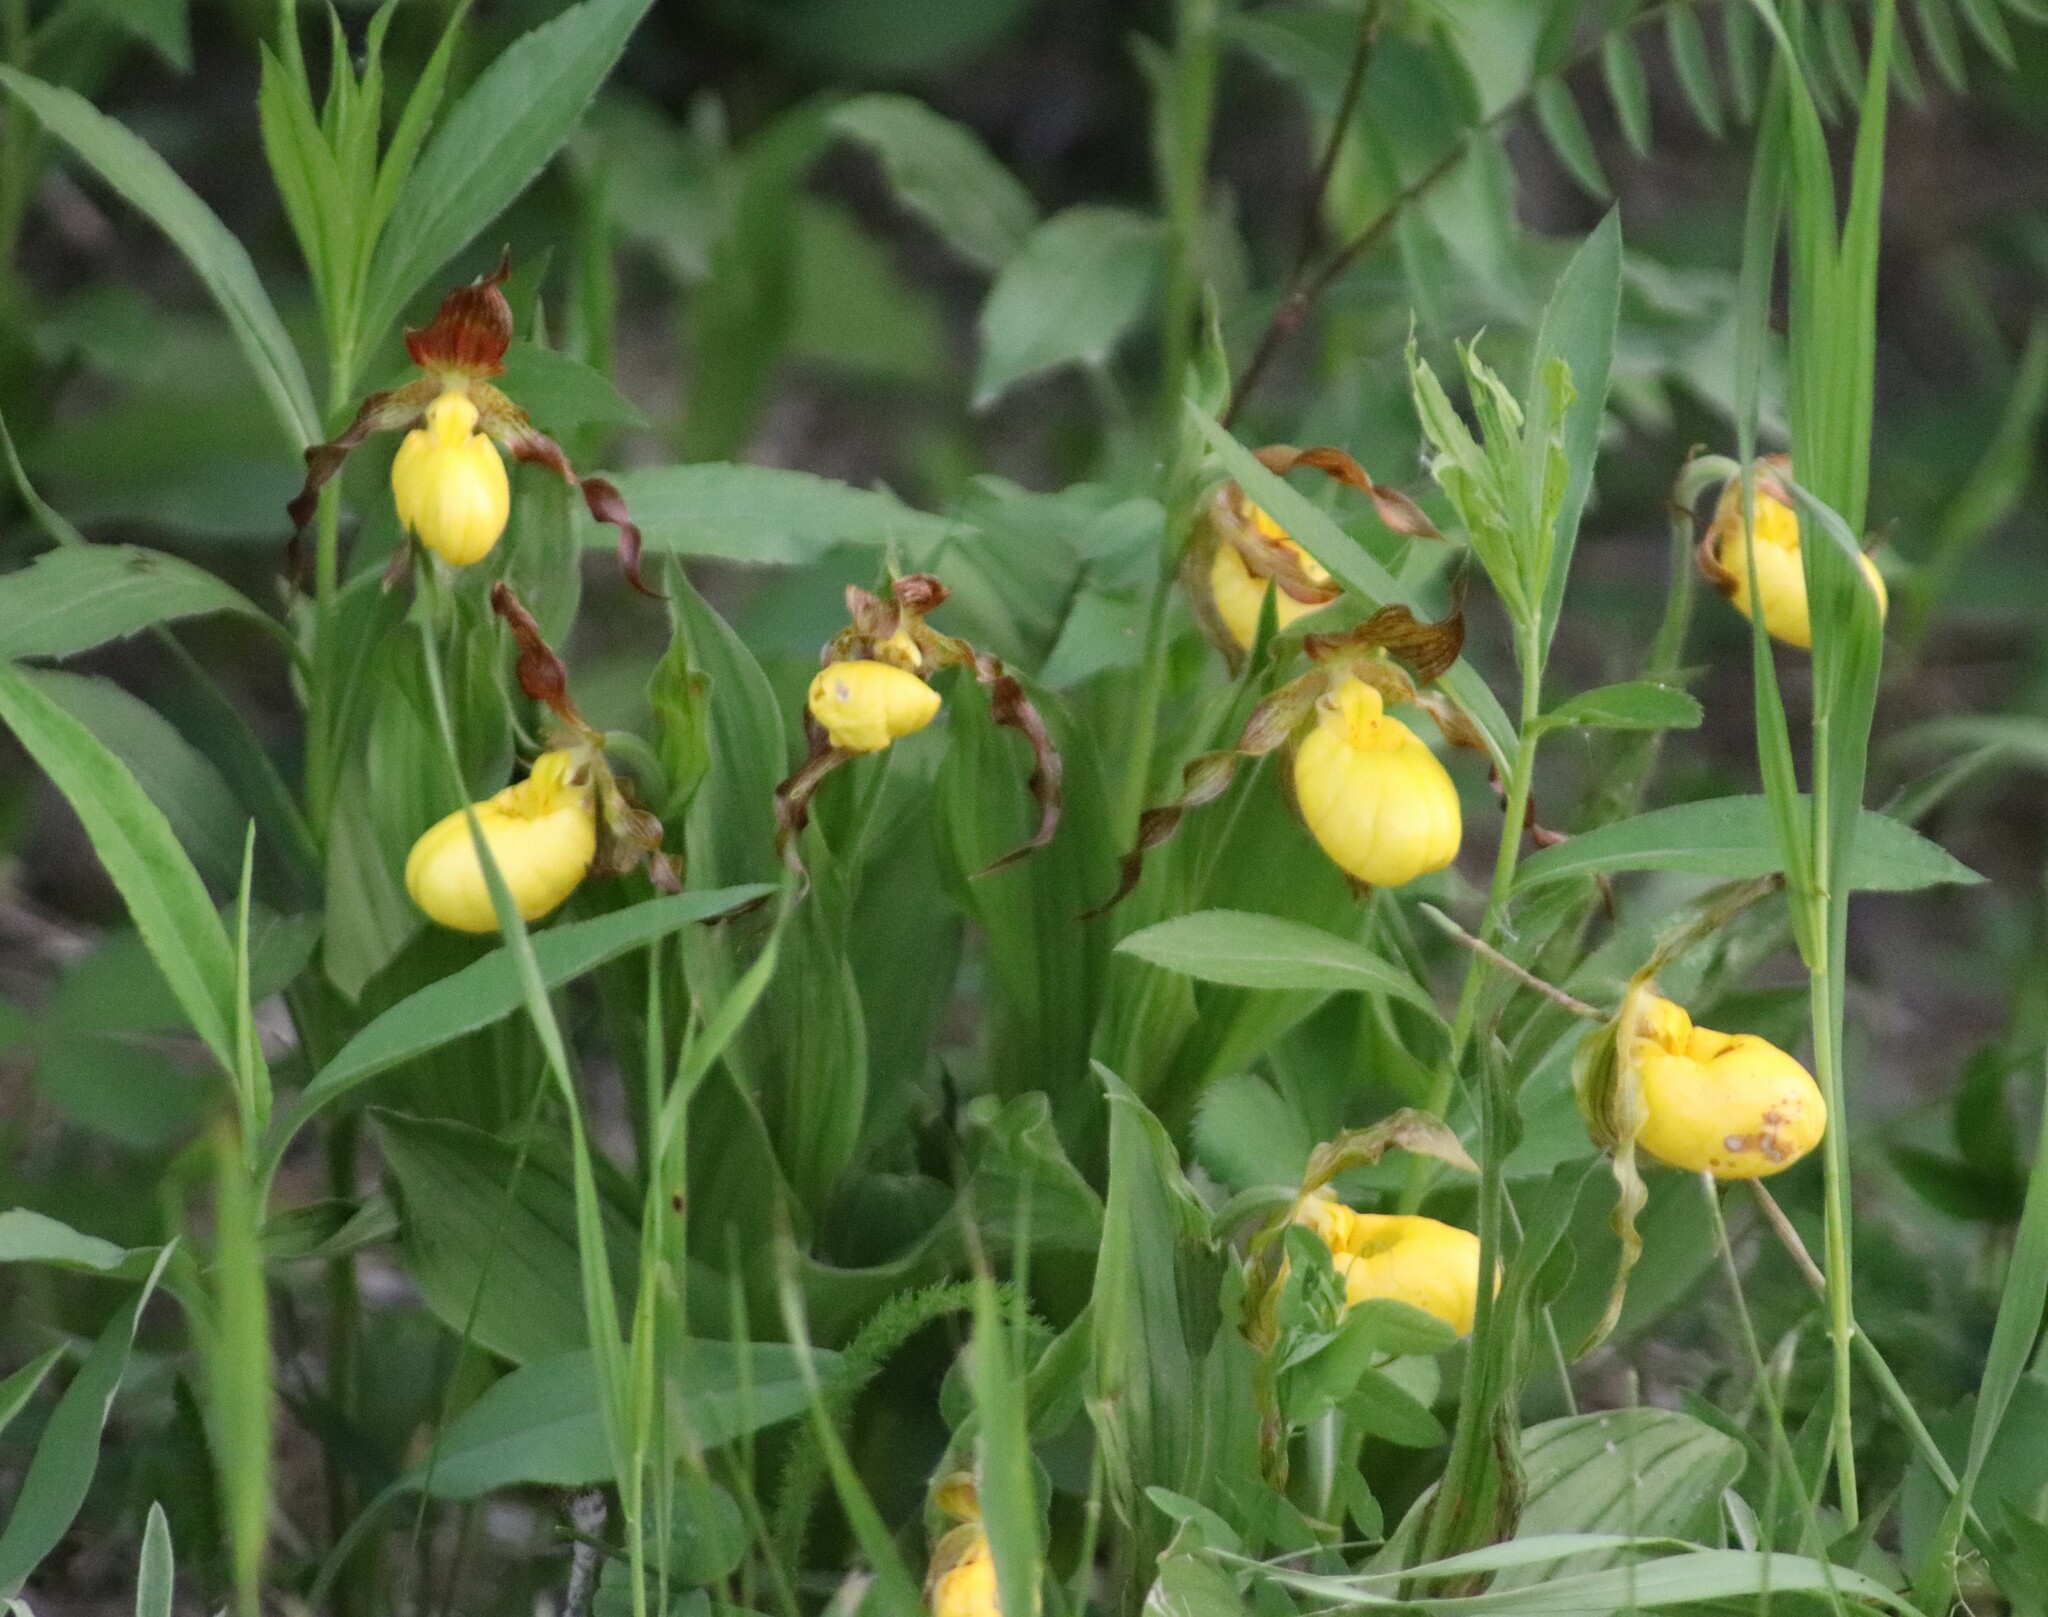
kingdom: Plantae
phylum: Tracheophyta
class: Liliopsida
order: Asparagales
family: Orchidaceae
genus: Cypripedium
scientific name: Cypripedium parviflorum
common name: American yellow lady's-slipper
